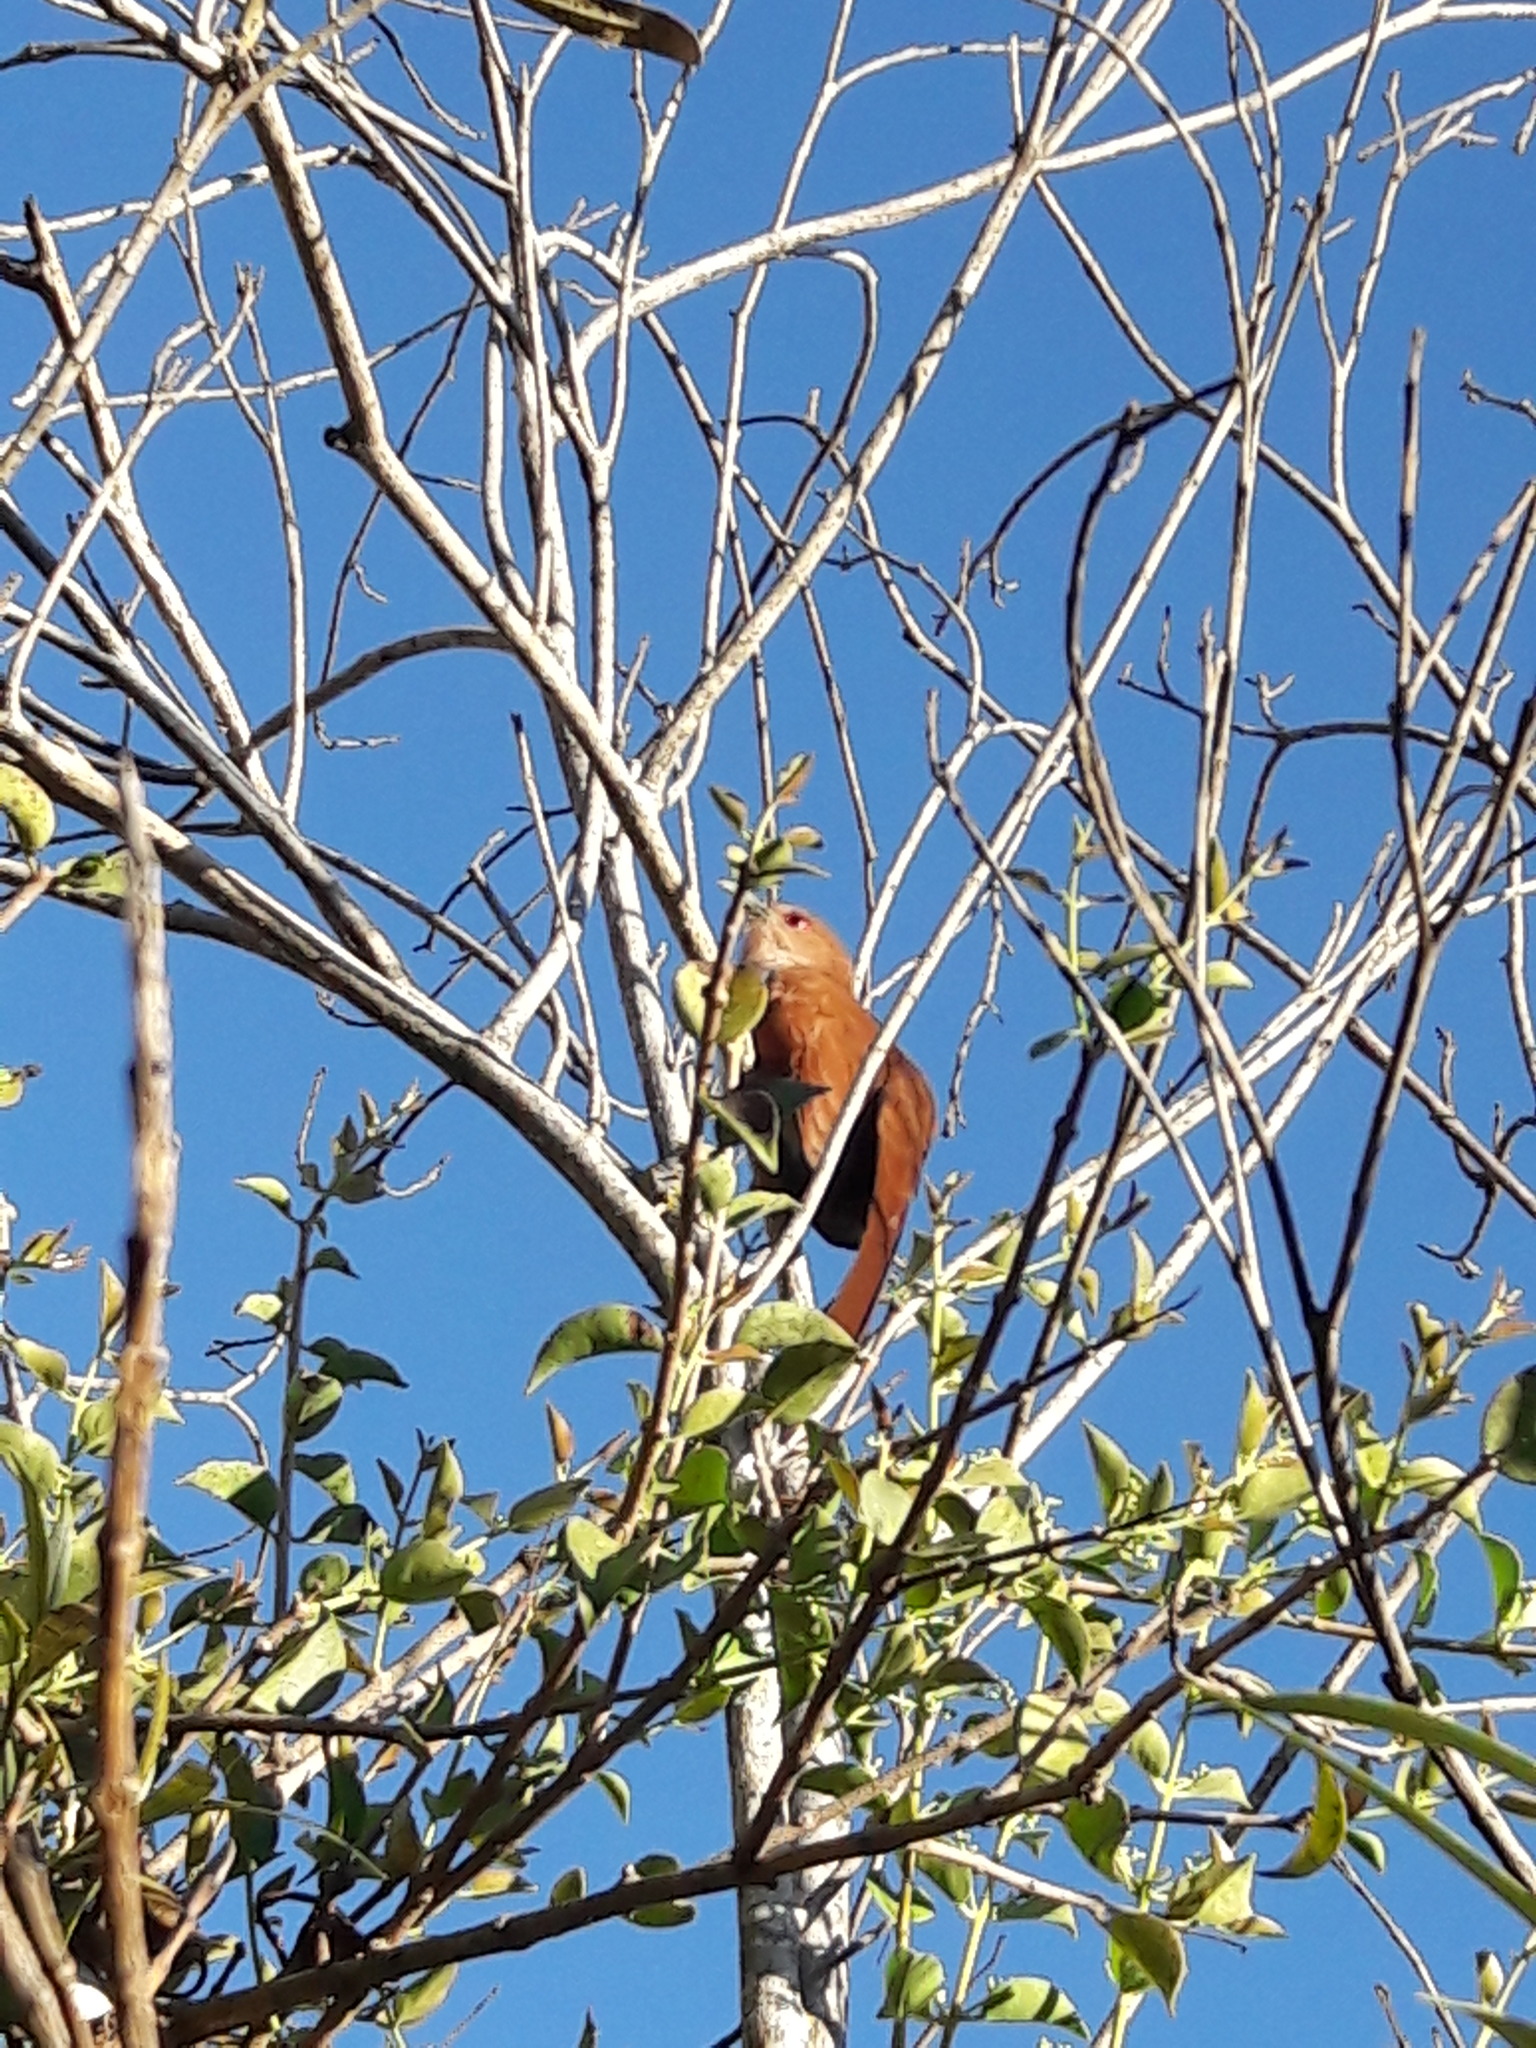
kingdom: Animalia
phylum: Chordata
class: Aves
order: Cuculiformes
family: Cuculidae
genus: Piaya
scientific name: Piaya cayana
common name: Squirrel cuckoo
